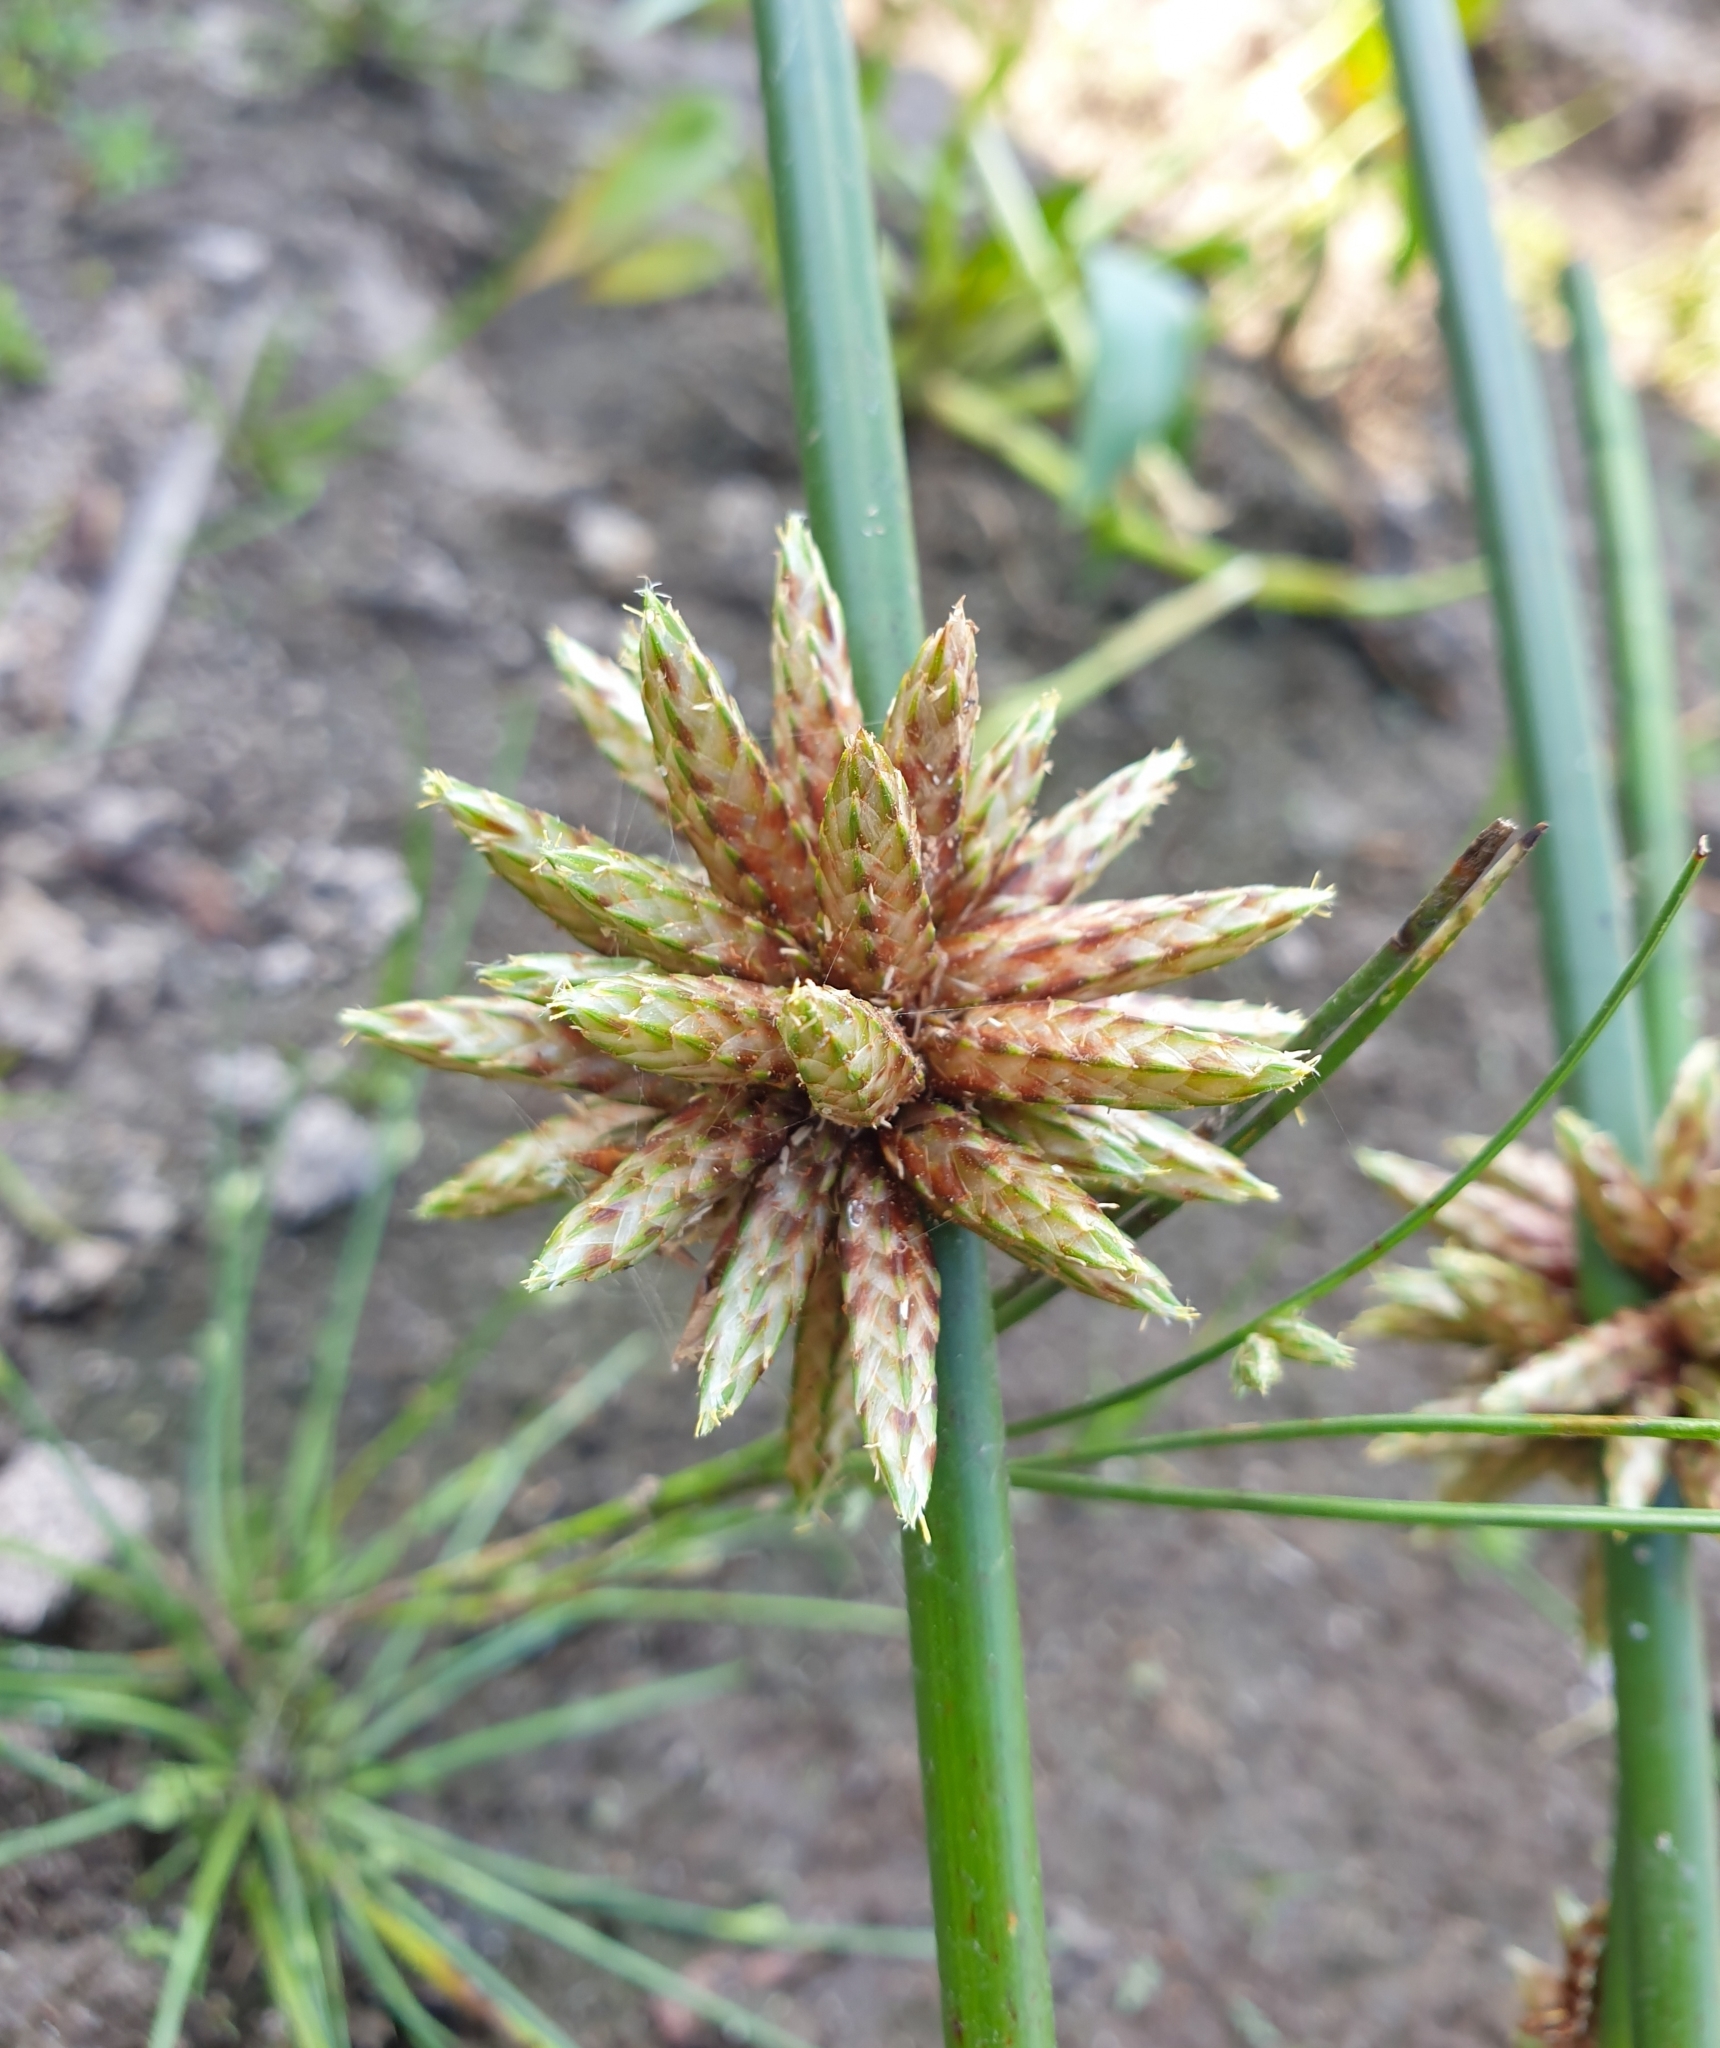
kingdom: Plantae
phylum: Tracheophyta
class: Liliopsida
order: Poales
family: Cyperaceae
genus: Schoenoplectiella
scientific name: Schoenoplectiella articulata
